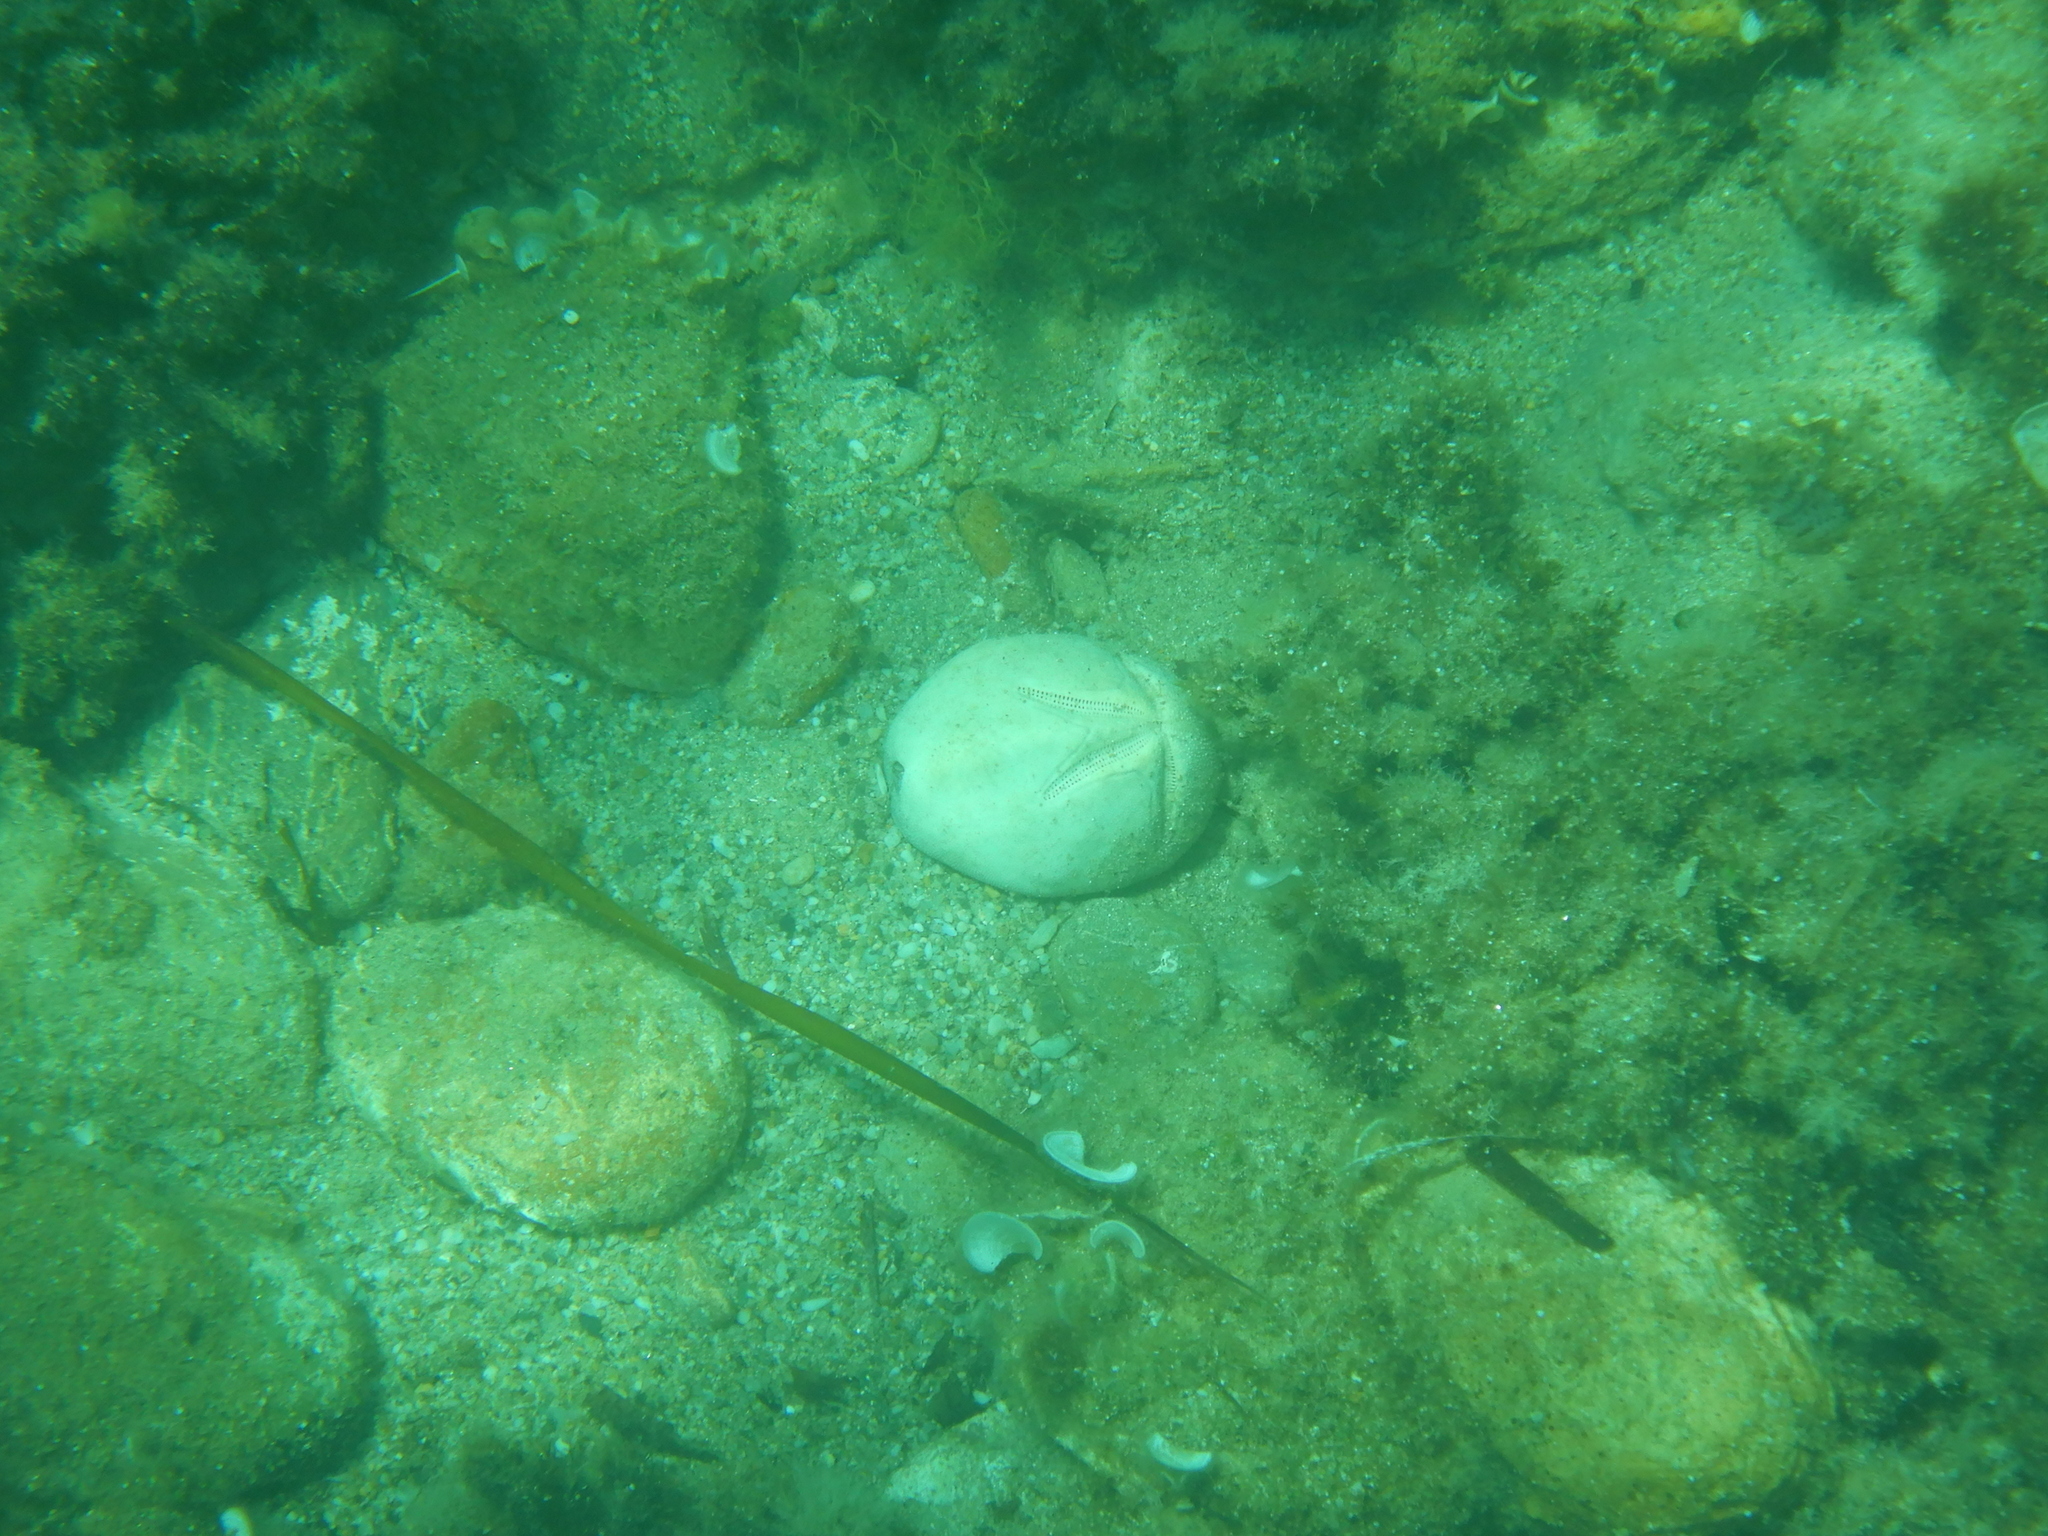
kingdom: Animalia
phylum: Echinodermata
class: Echinoidea
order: Spatangoida
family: Brissidae
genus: Brissus
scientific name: Brissus unicolor
